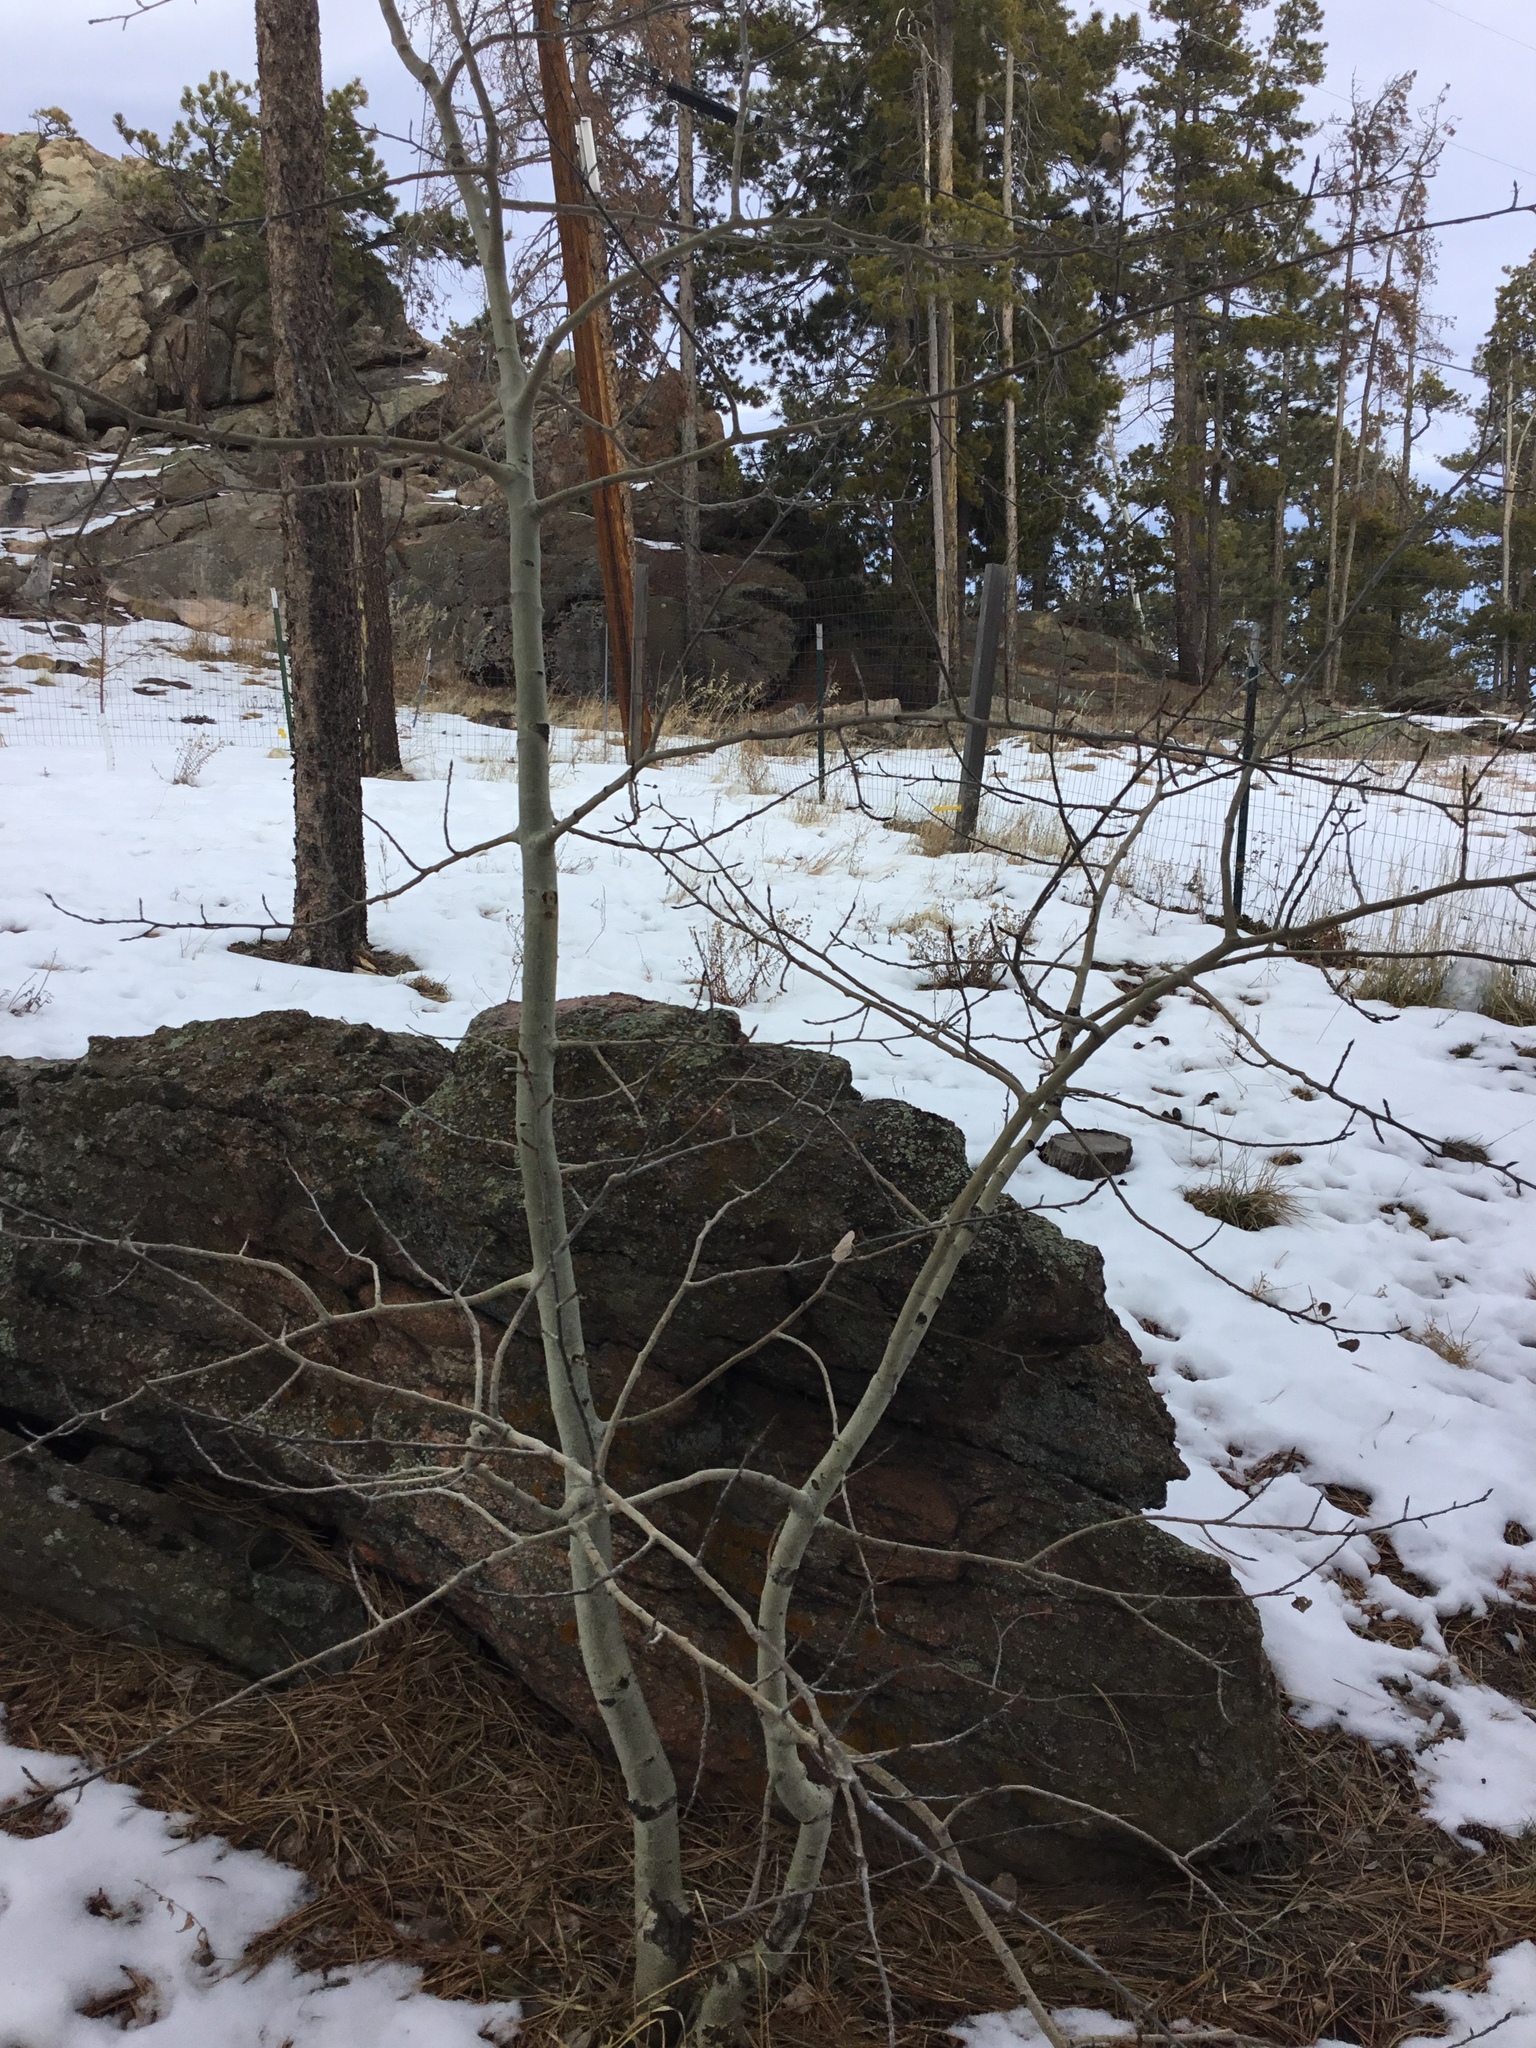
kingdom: Plantae
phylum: Tracheophyta
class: Magnoliopsida
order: Malpighiales
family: Salicaceae
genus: Populus
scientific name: Populus tremuloides
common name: Quaking aspen
